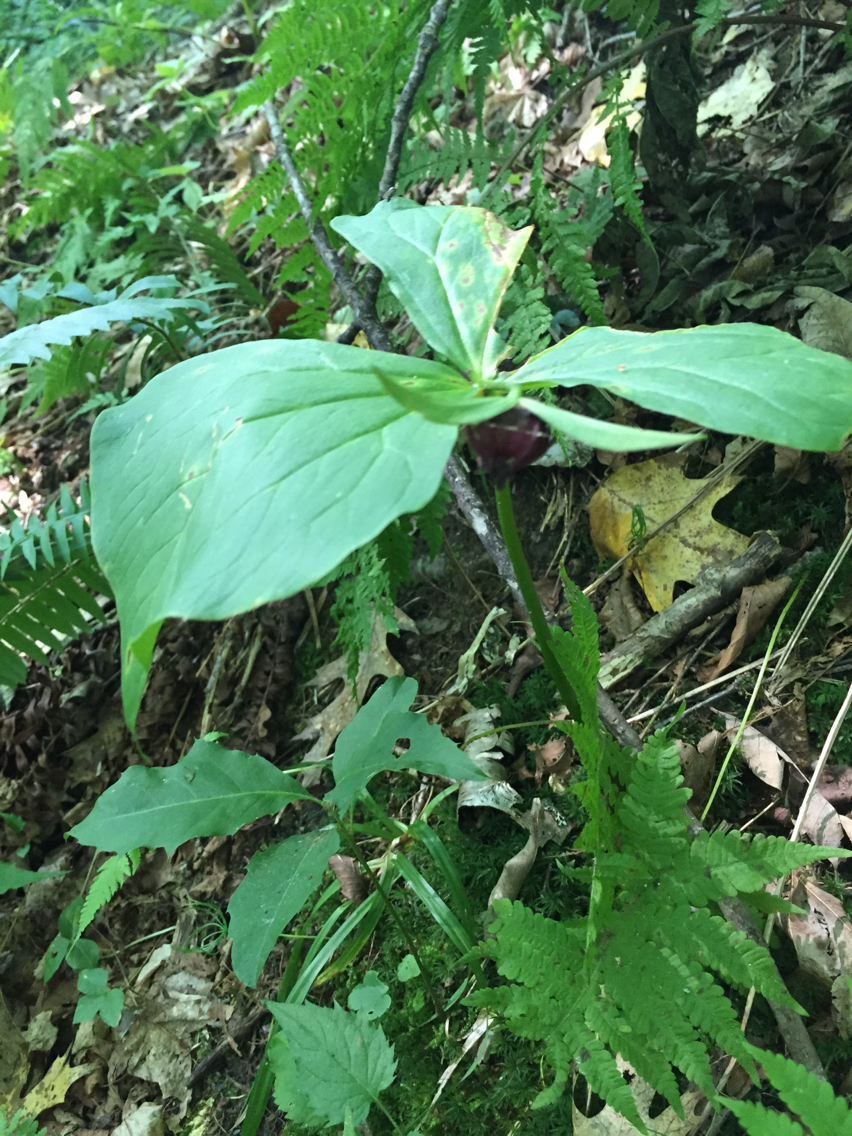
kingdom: Plantae
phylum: Tracheophyta
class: Liliopsida
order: Liliales
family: Melanthiaceae
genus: Trillium
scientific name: Trillium erectum
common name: Purple trillium
